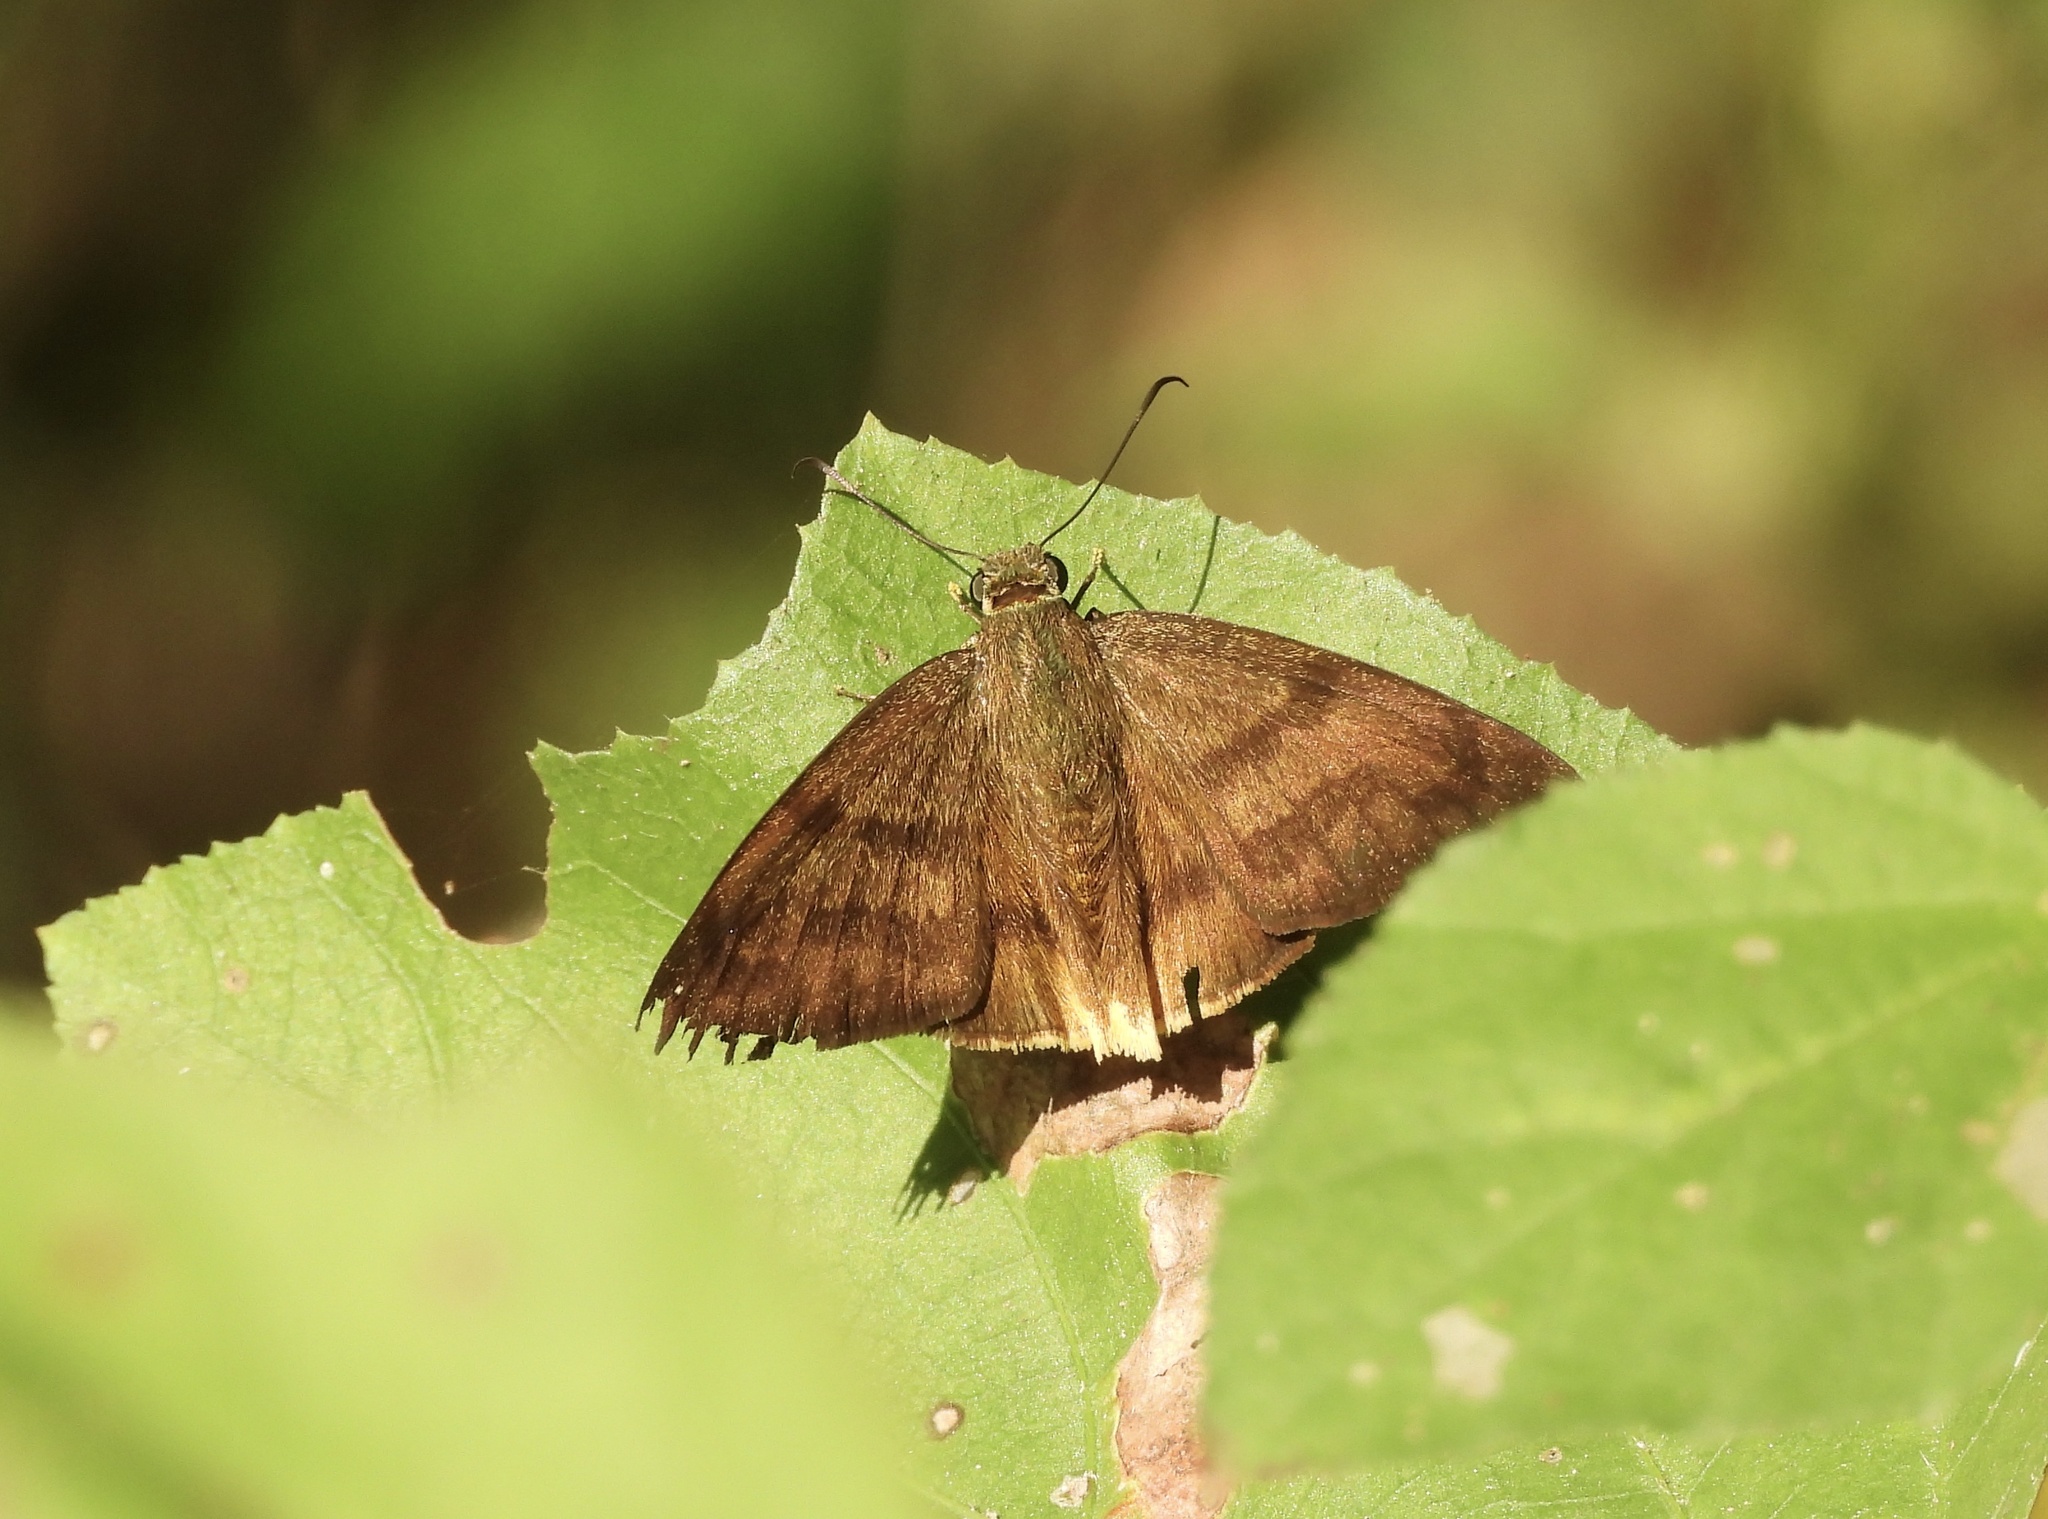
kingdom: Animalia
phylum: Arthropoda
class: Insecta
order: Lepidoptera
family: Hesperiidae
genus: Astraptes
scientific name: Astraptes anaphus
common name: Yellow-tipped flasher
